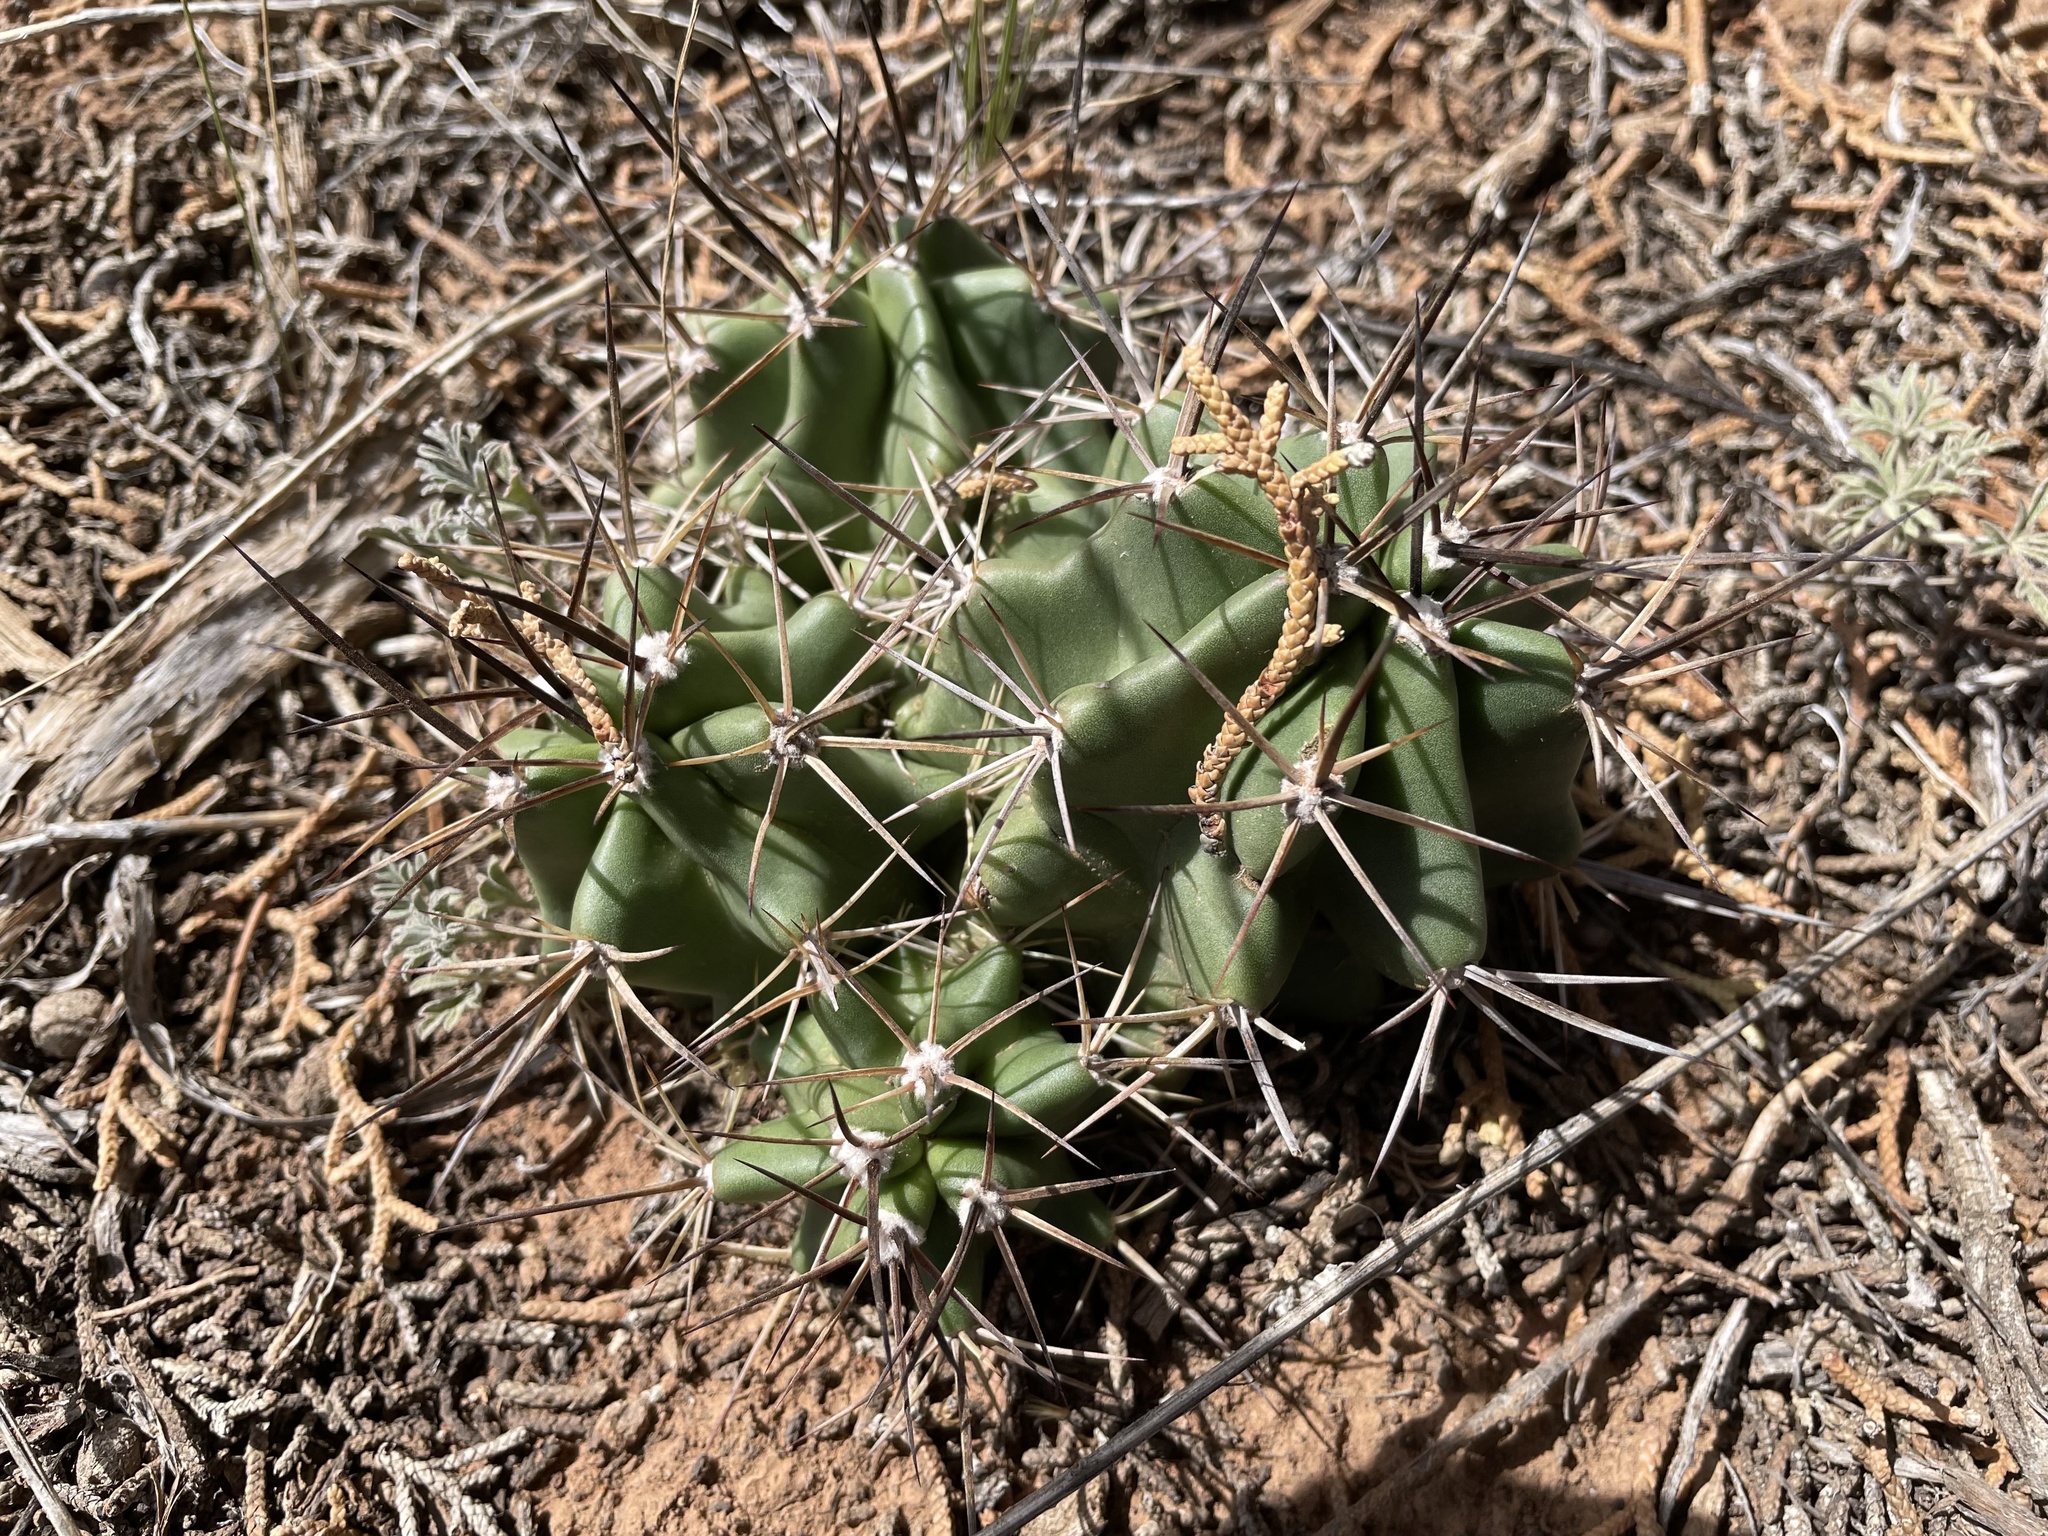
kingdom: Plantae
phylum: Tracheophyta
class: Magnoliopsida
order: Caryophyllales
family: Cactaceae
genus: Echinocereus
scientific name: Echinocereus triglochidiatus
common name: Claretcup hedgehog
